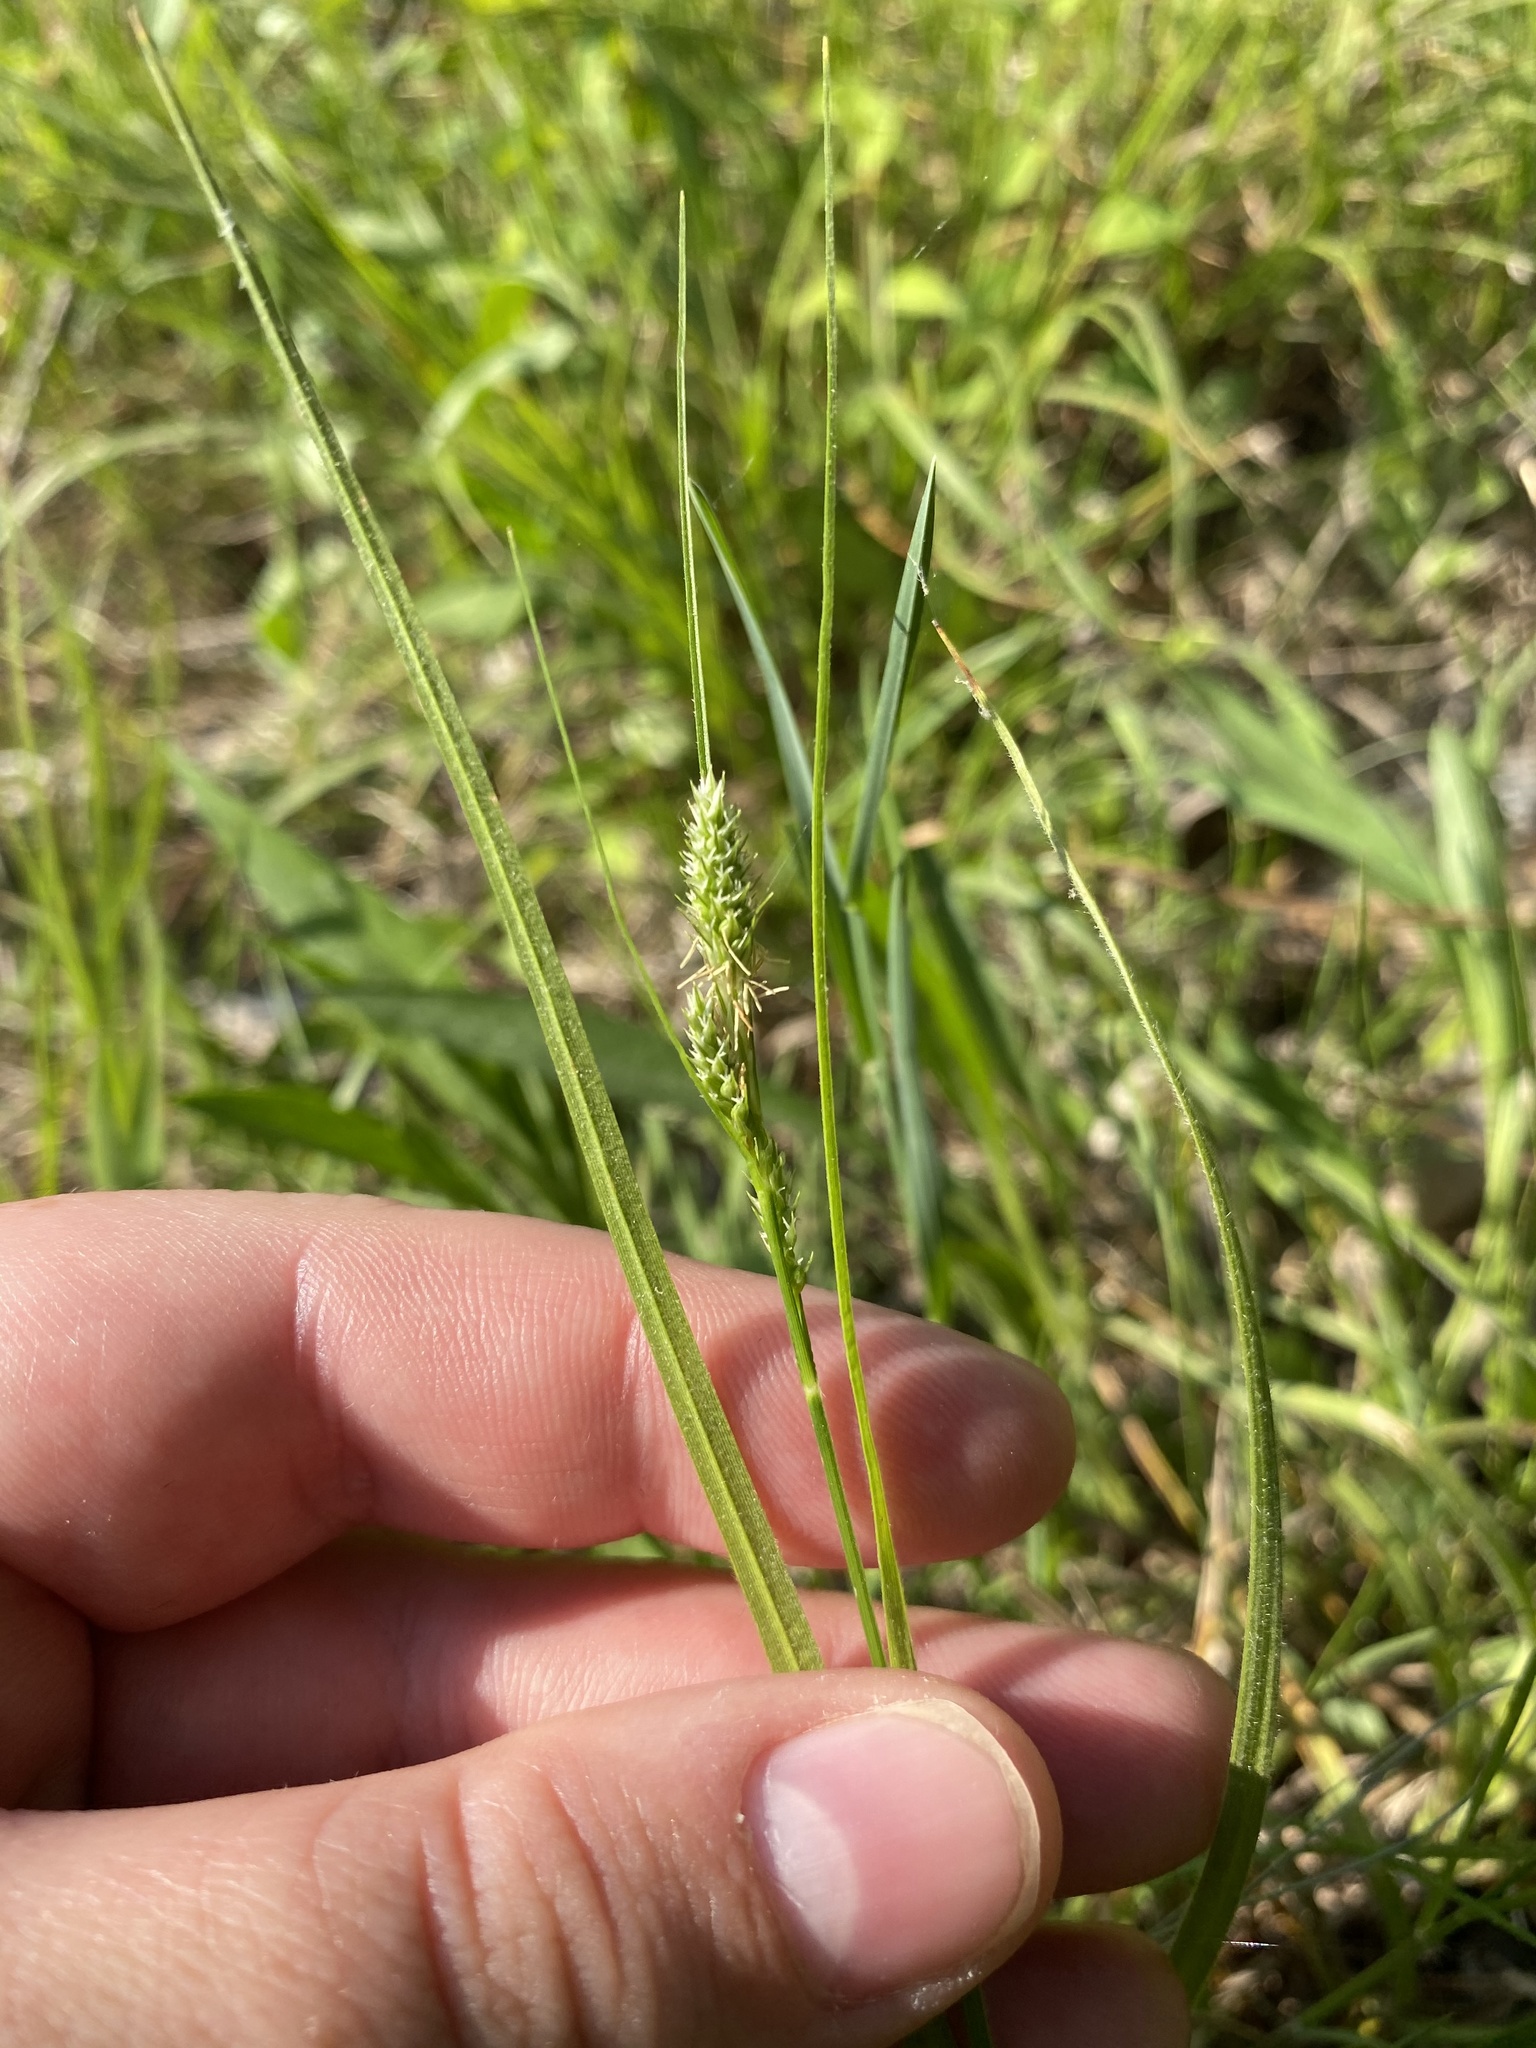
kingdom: Plantae
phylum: Tracheophyta
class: Liliopsida
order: Poales
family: Cyperaceae
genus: Carex
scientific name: Carex hirsutella
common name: Fuzzy wuzzy sedge
